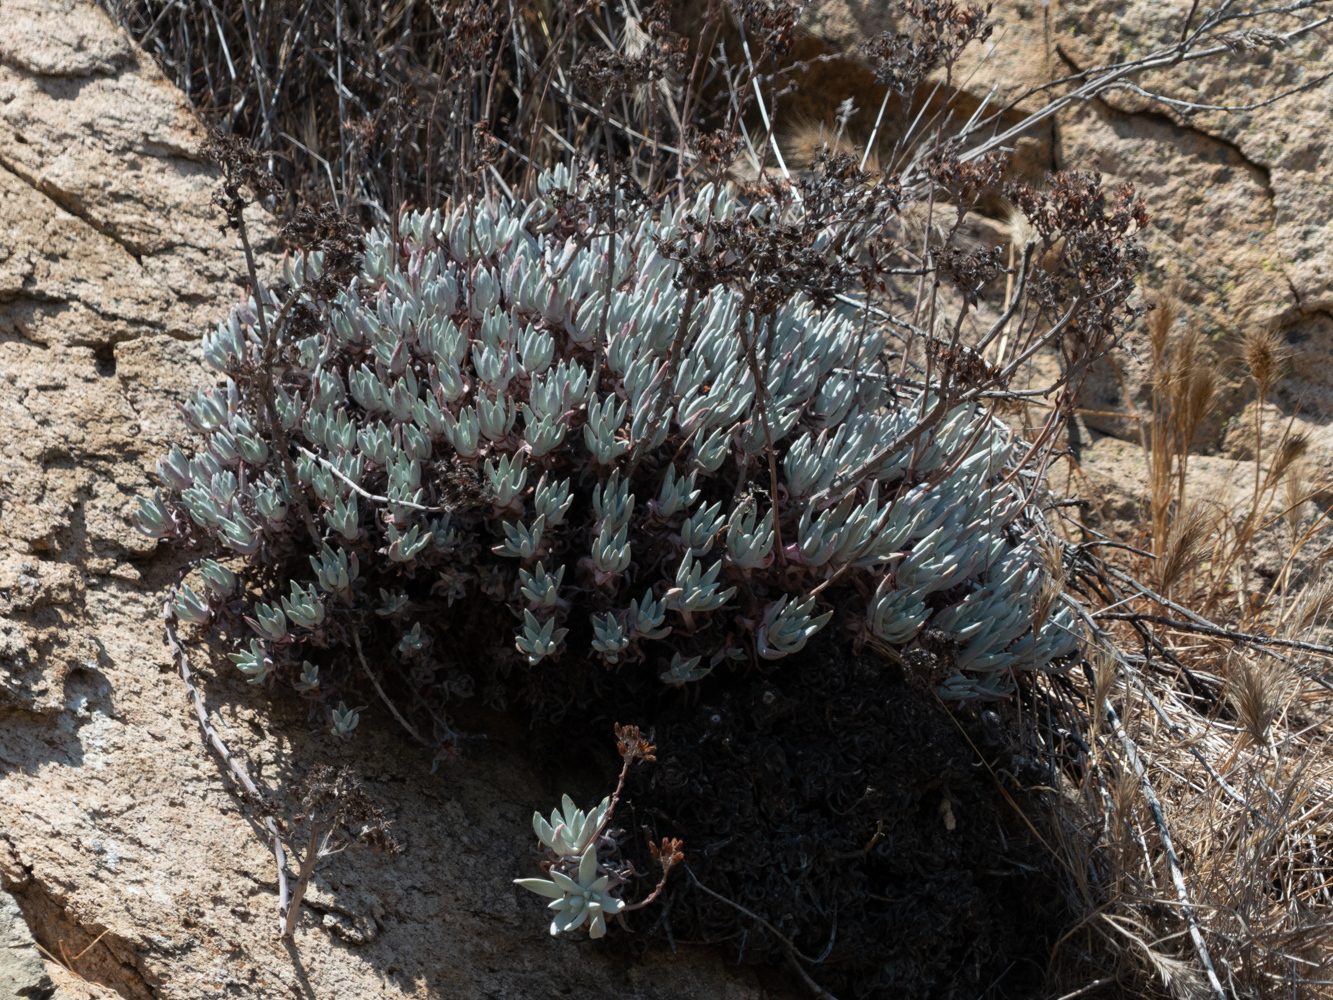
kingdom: Plantae
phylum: Tracheophyta
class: Magnoliopsida
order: Saxifragales
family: Crassulaceae
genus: Dudleya
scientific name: Dudleya caespitosa
